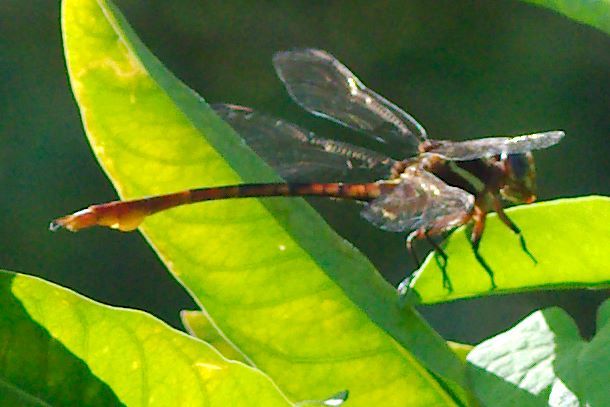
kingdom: Animalia
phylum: Arthropoda
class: Insecta
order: Odonata
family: Gomphidae
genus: Aphylla
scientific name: Aphylla williamsoni
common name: Two-striped forceptail
